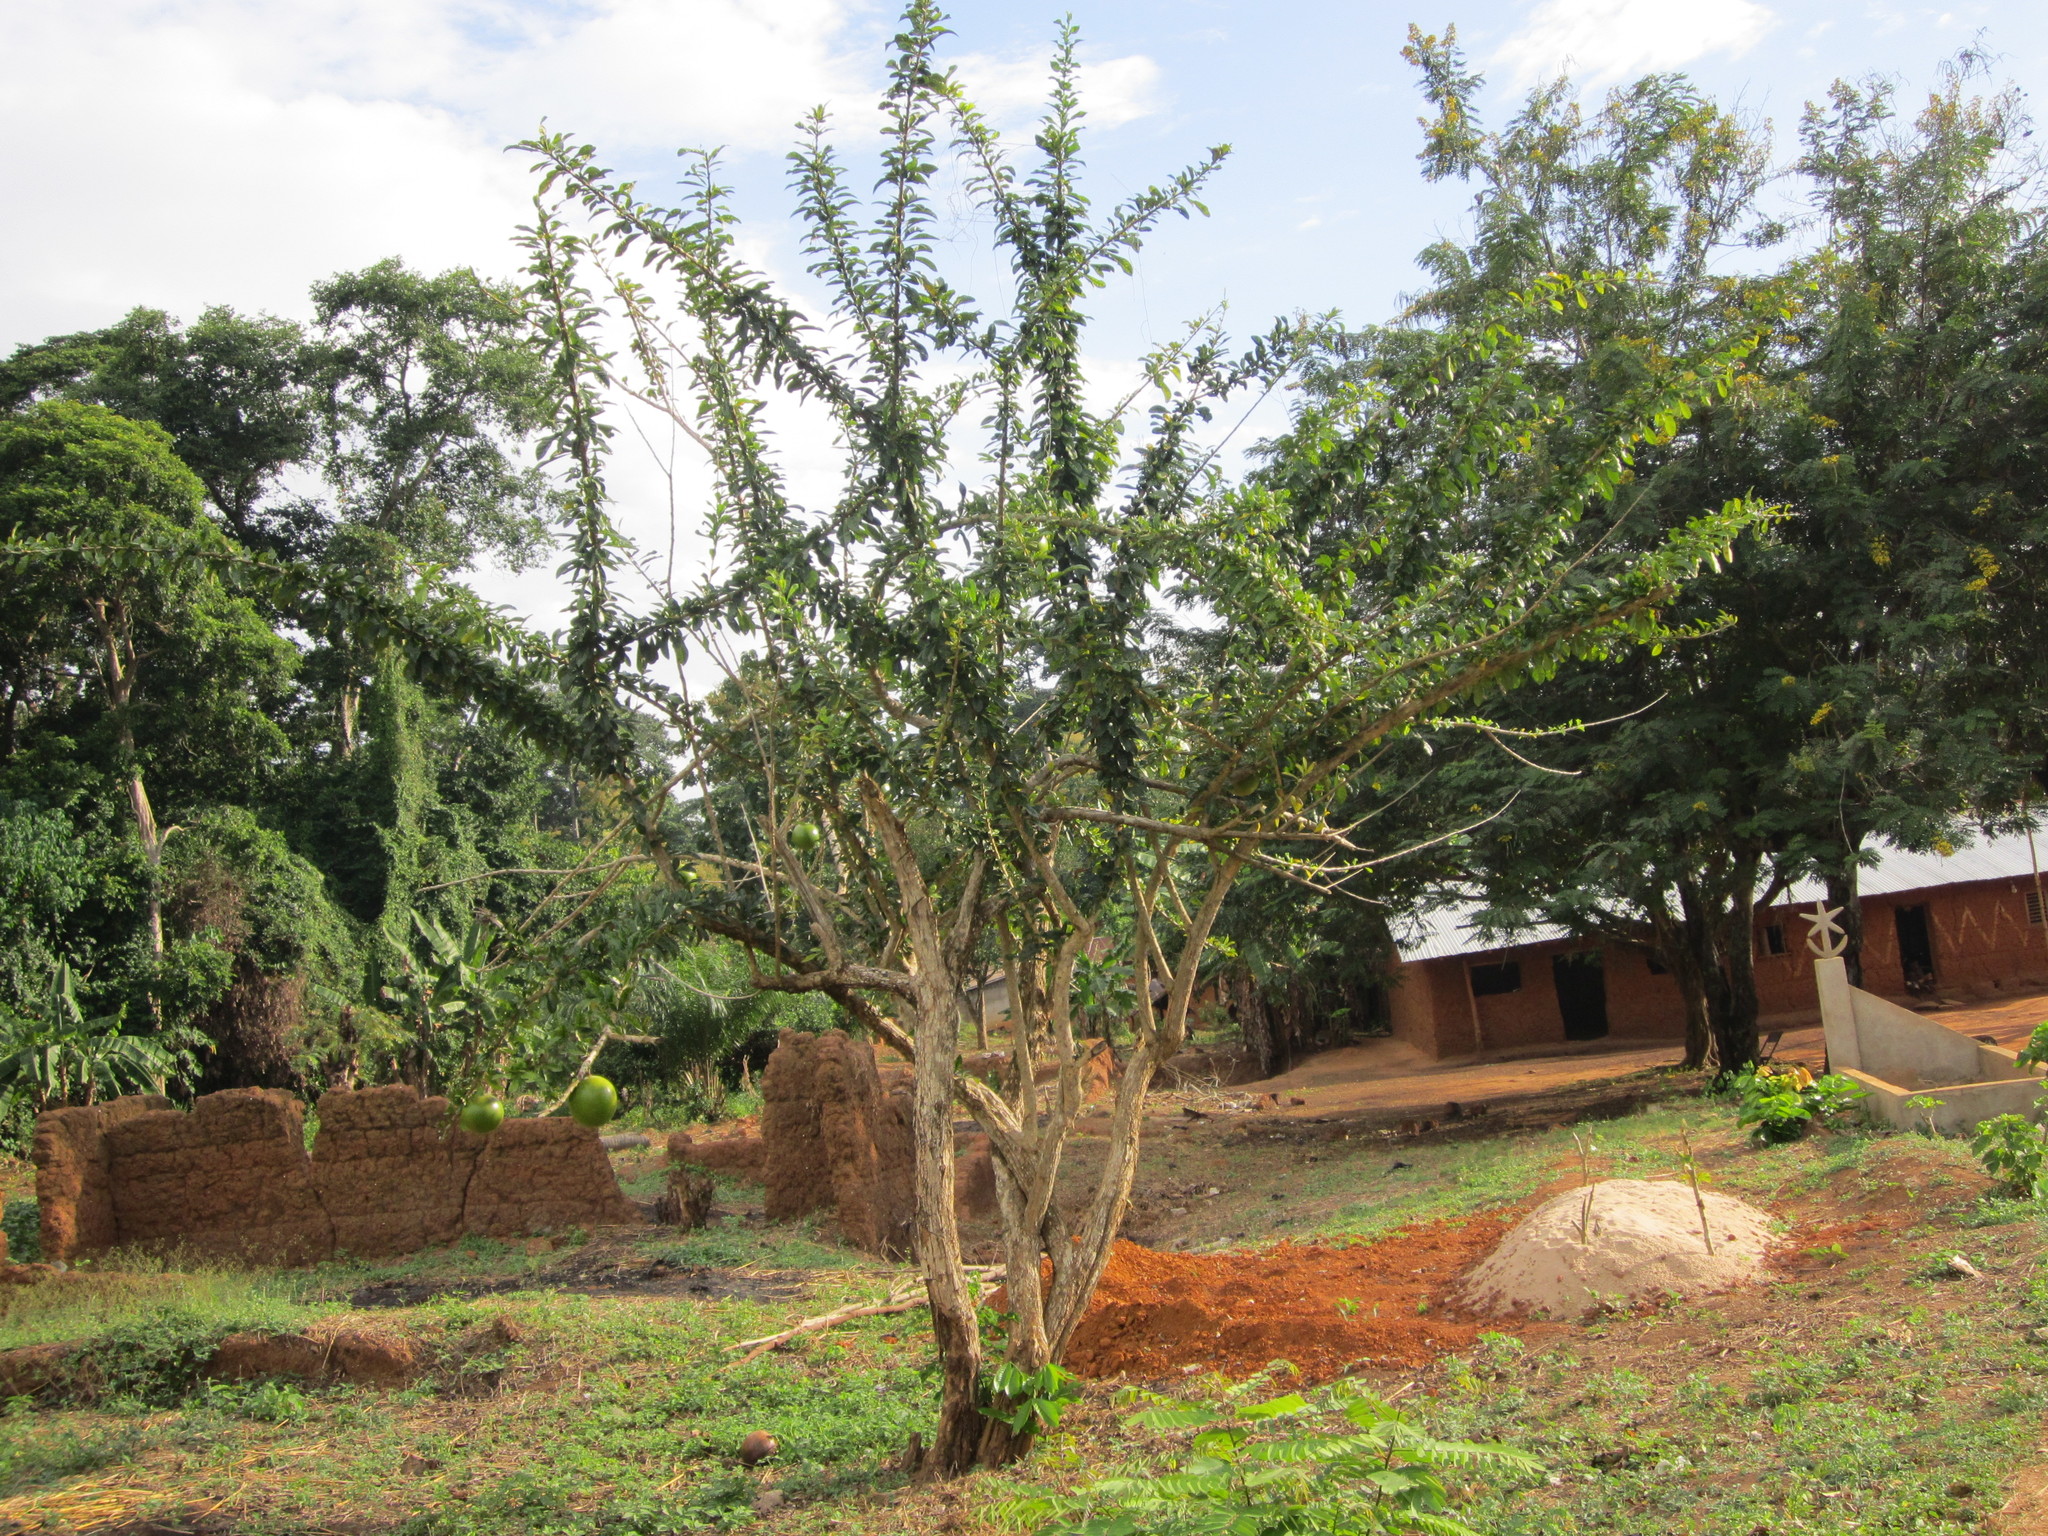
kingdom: Plantae
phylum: Tracheophyta
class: Magnoliopsida
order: Lamiales
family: Bignoniaceae
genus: Crescentia
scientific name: Crescentia cujete
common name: Calabash
